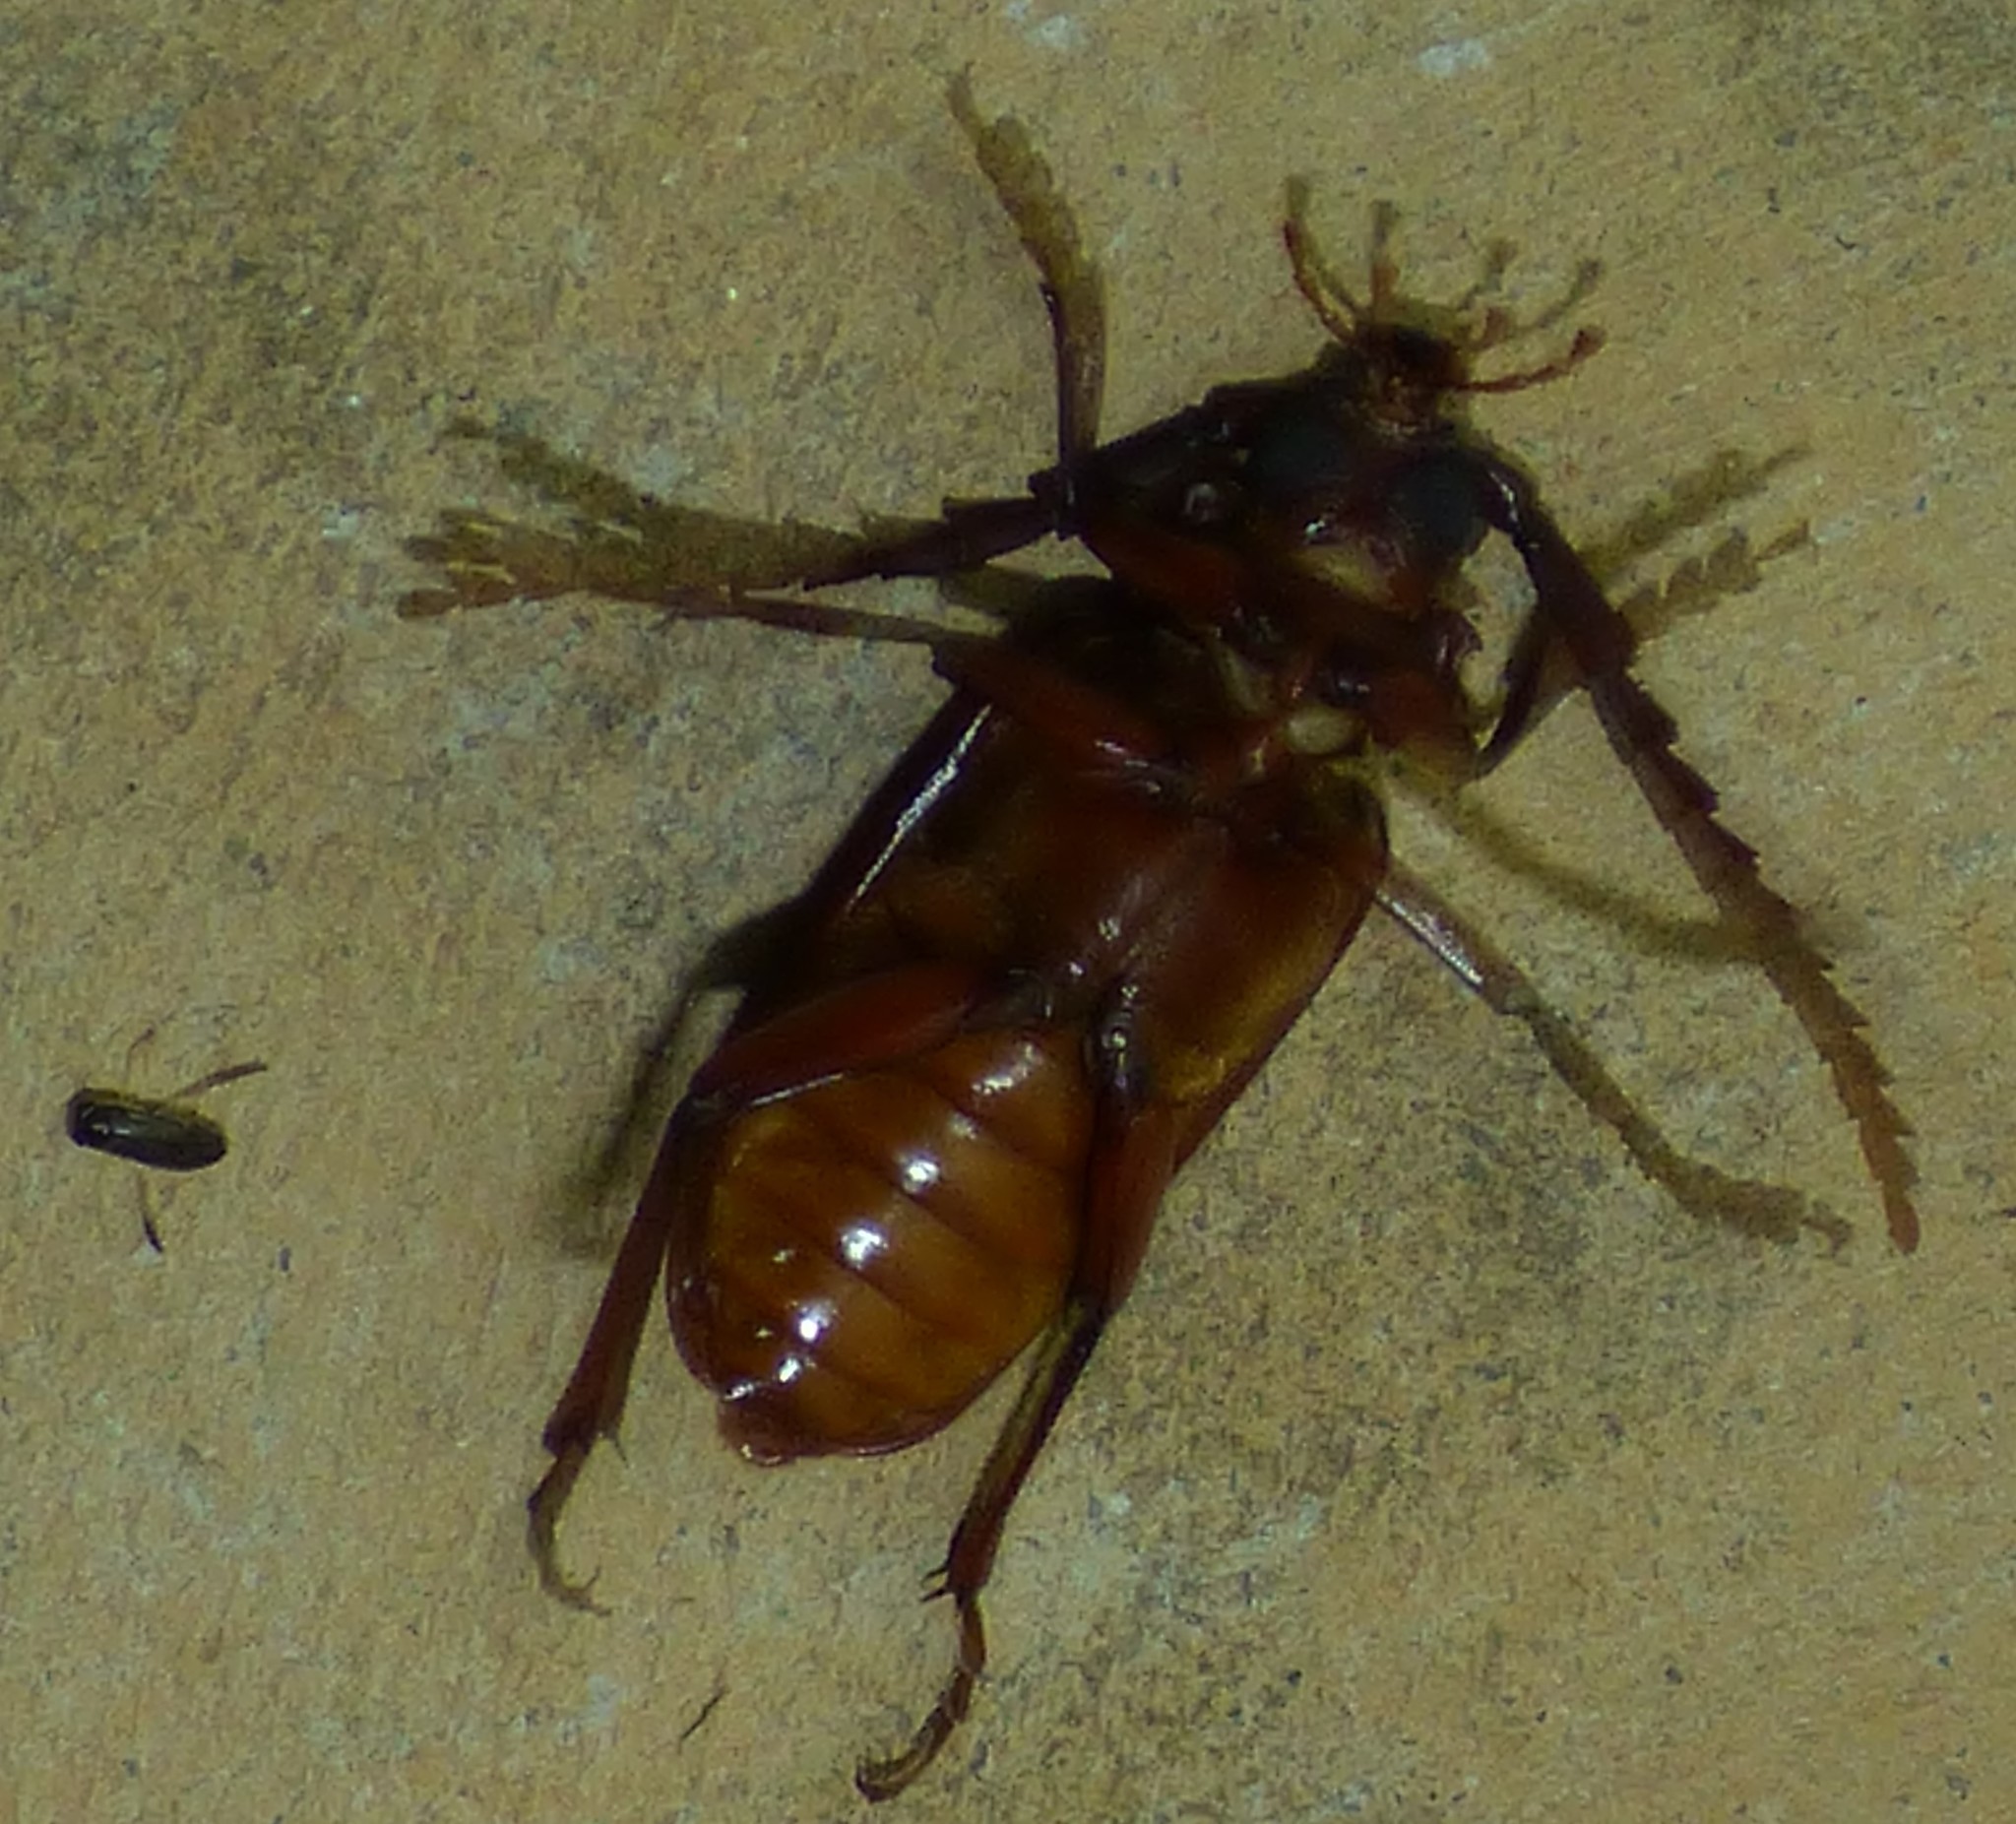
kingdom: Animalia
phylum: Arthropoda
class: Insecta
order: Coleoptera
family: Cerambycidae
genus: Prionus
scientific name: Prionus pocularis
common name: Tooth-necked longhorn beetle
